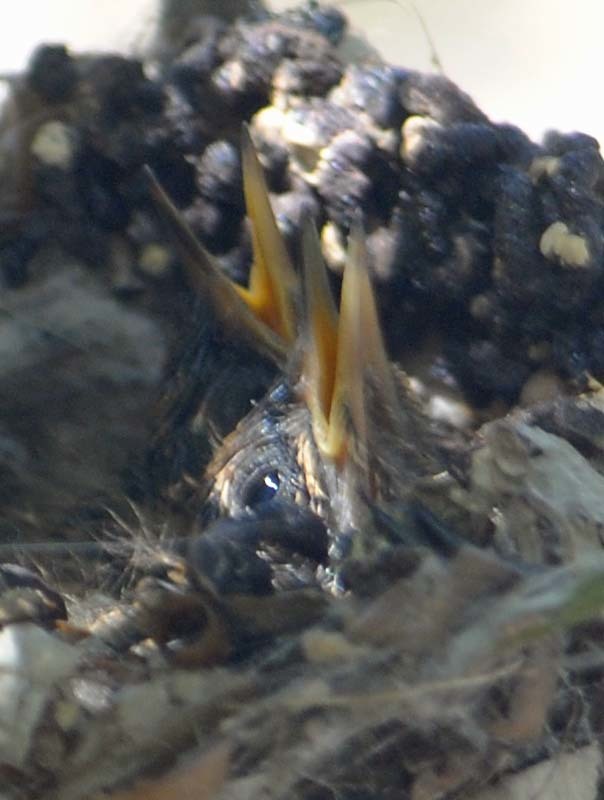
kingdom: Animalia
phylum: Chordata
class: Aves
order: Apodiformes
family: Trochilidae
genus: Cynanthus
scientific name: Cynanthus latirostris
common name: Broad-billed hummingbird
